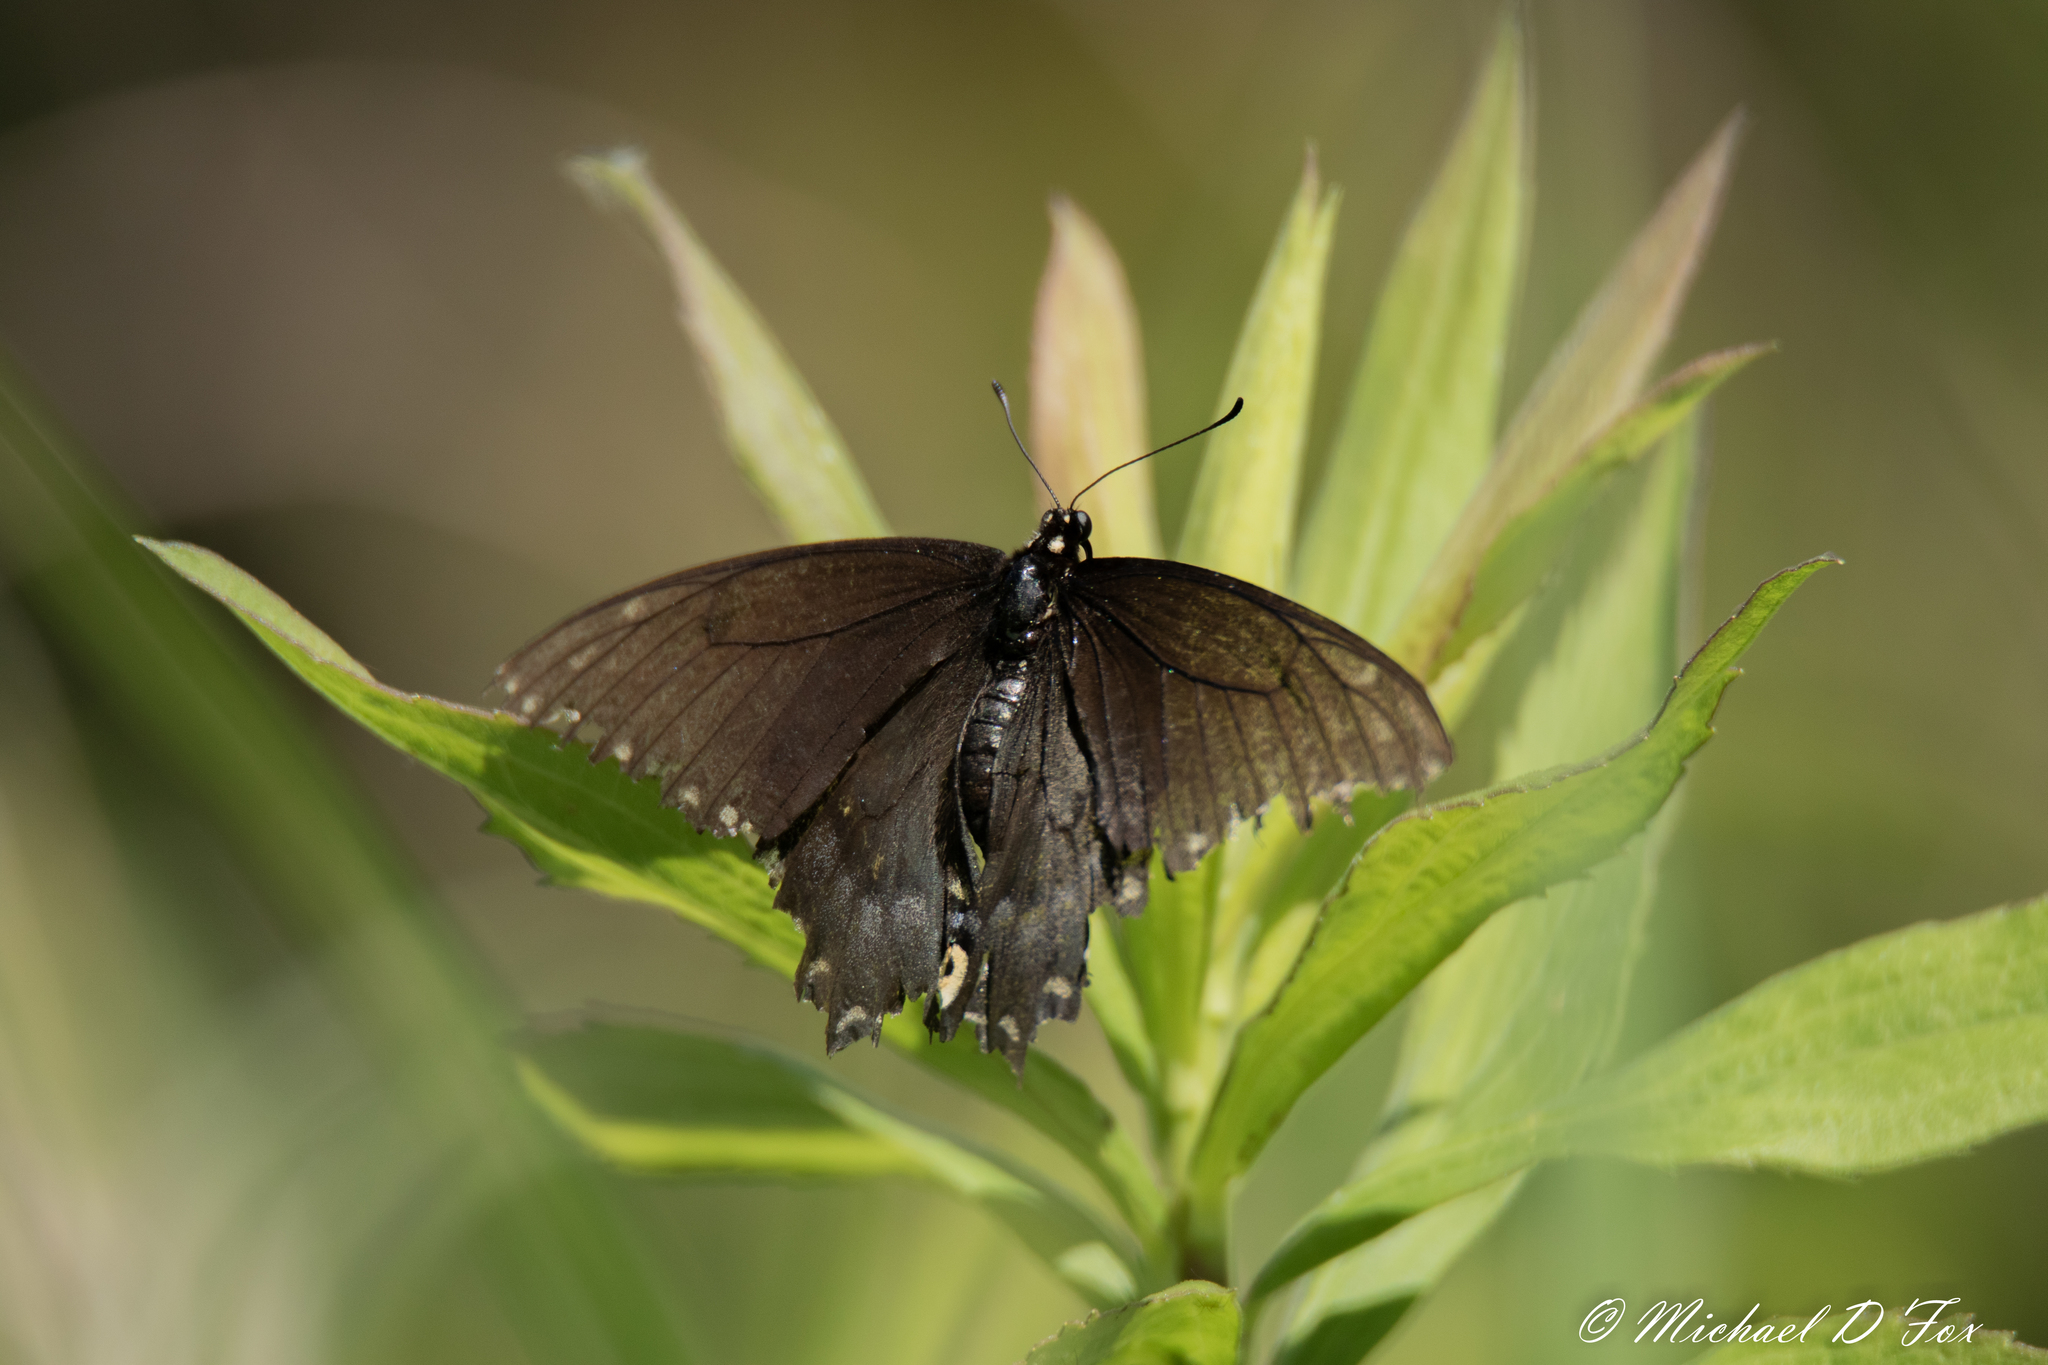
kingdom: Animalia
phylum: Arthropoda
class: Insecta
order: Lepidoptera
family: Papilionidae
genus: Papilio
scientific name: Papilio polyxenes
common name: Black swallowtail
